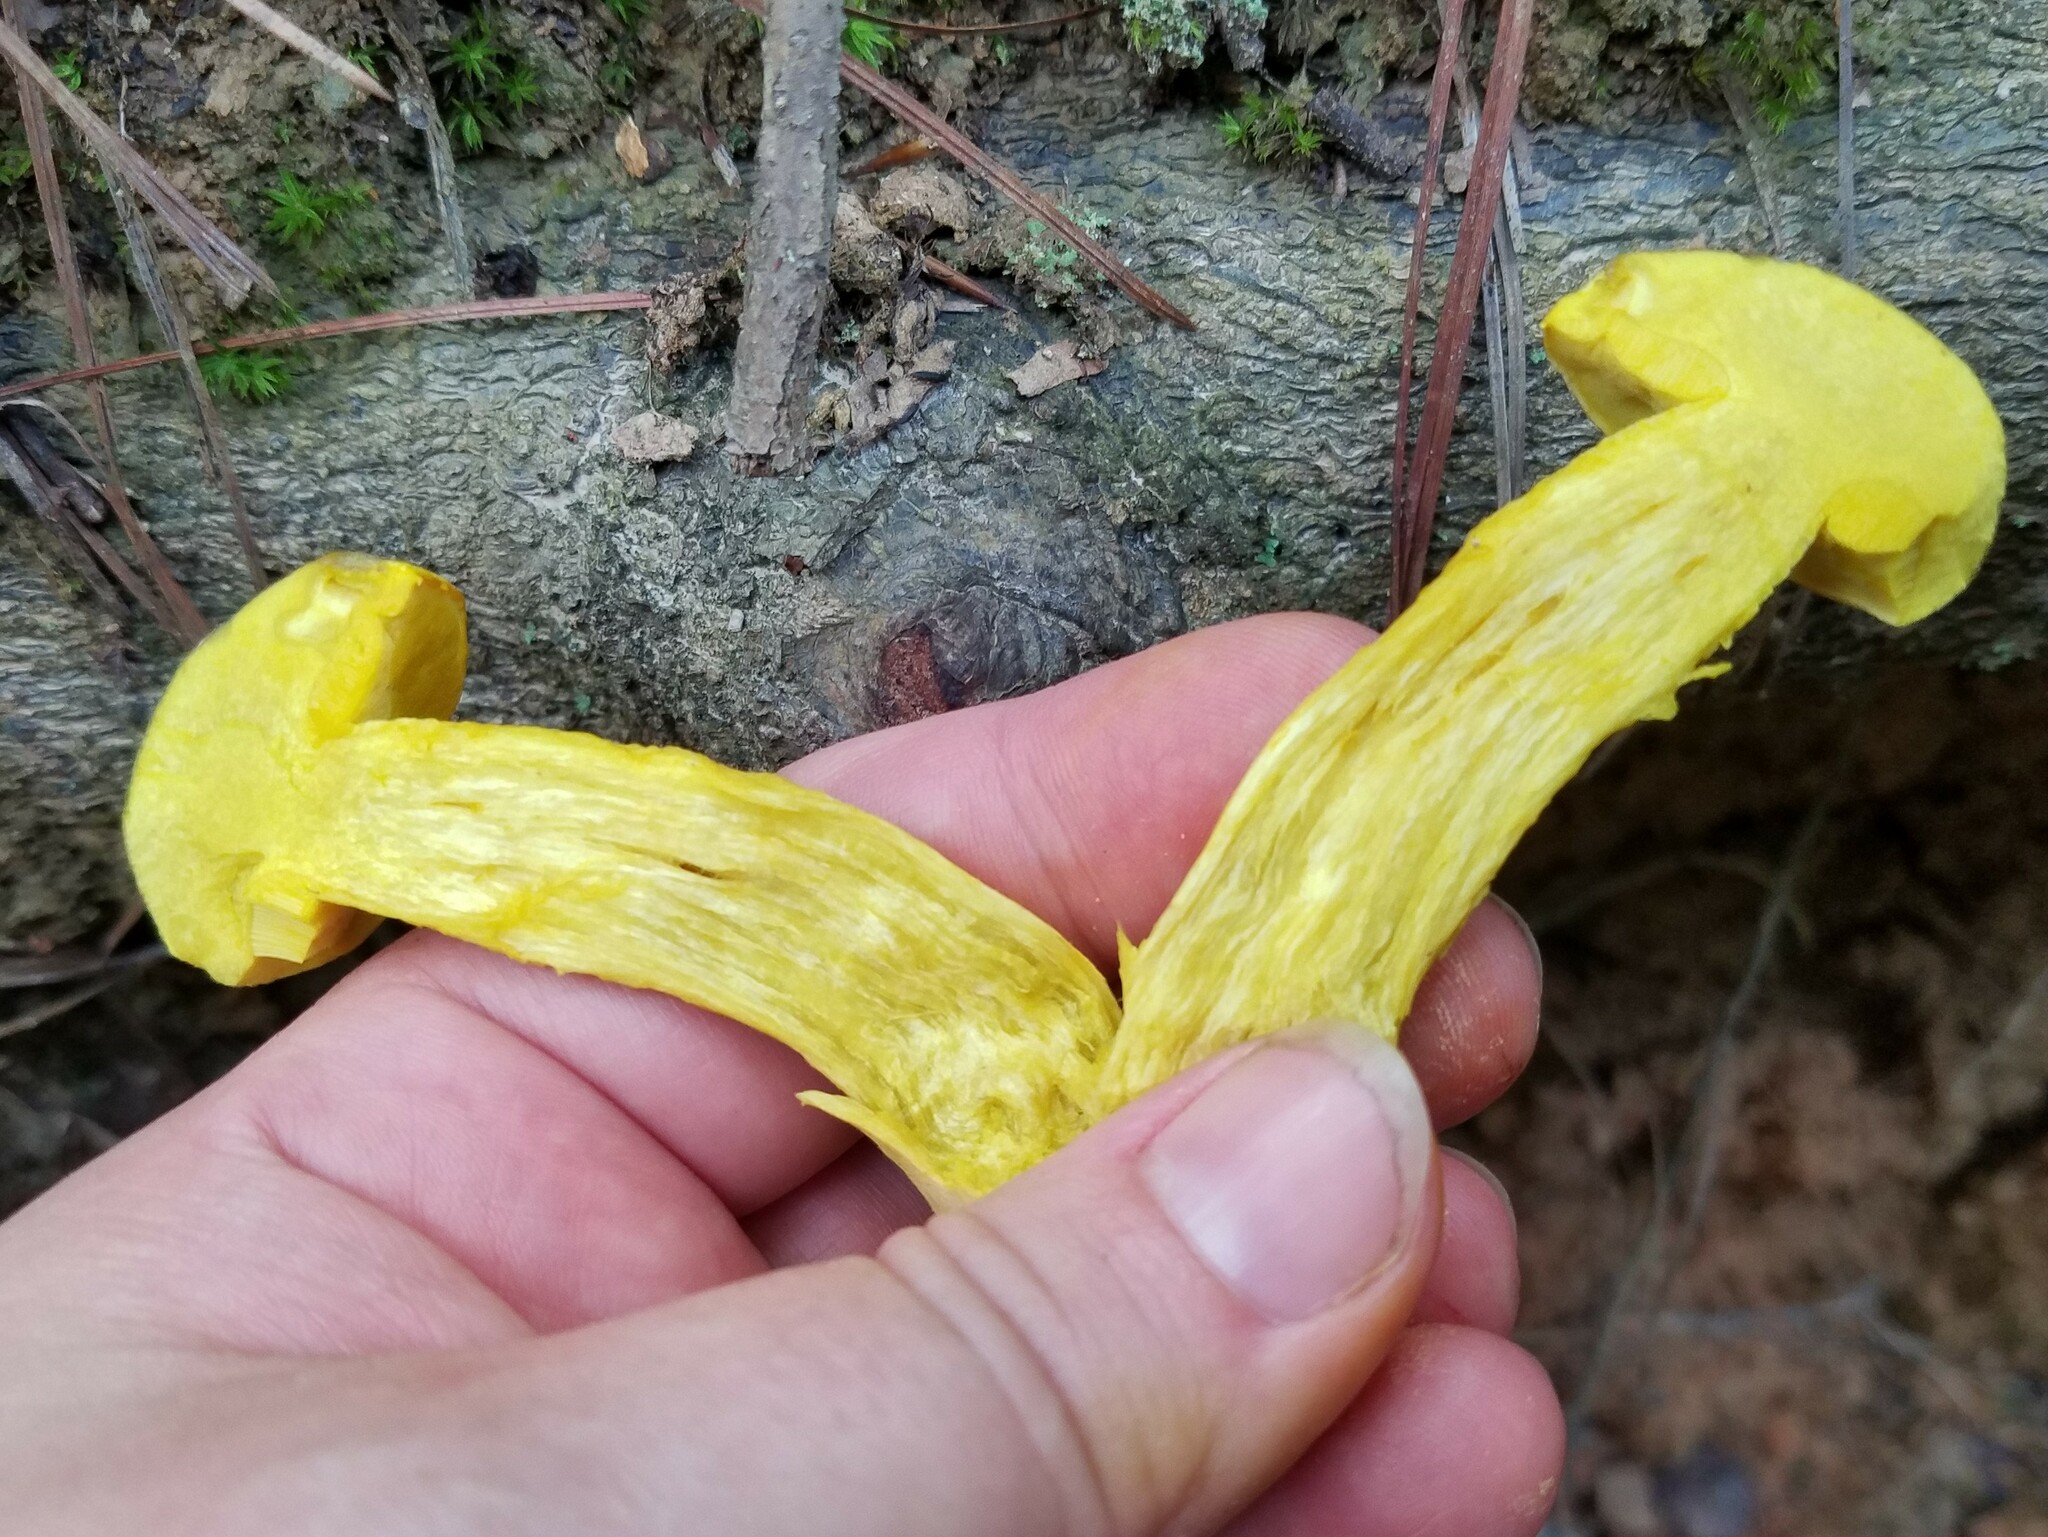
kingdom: Fungi
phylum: Basidiomycota
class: Agaricomycetes
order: Boletales
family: Boletaceae
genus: Retiboletus
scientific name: Retiboletus ornatipes
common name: Ornate-stalked bolete
